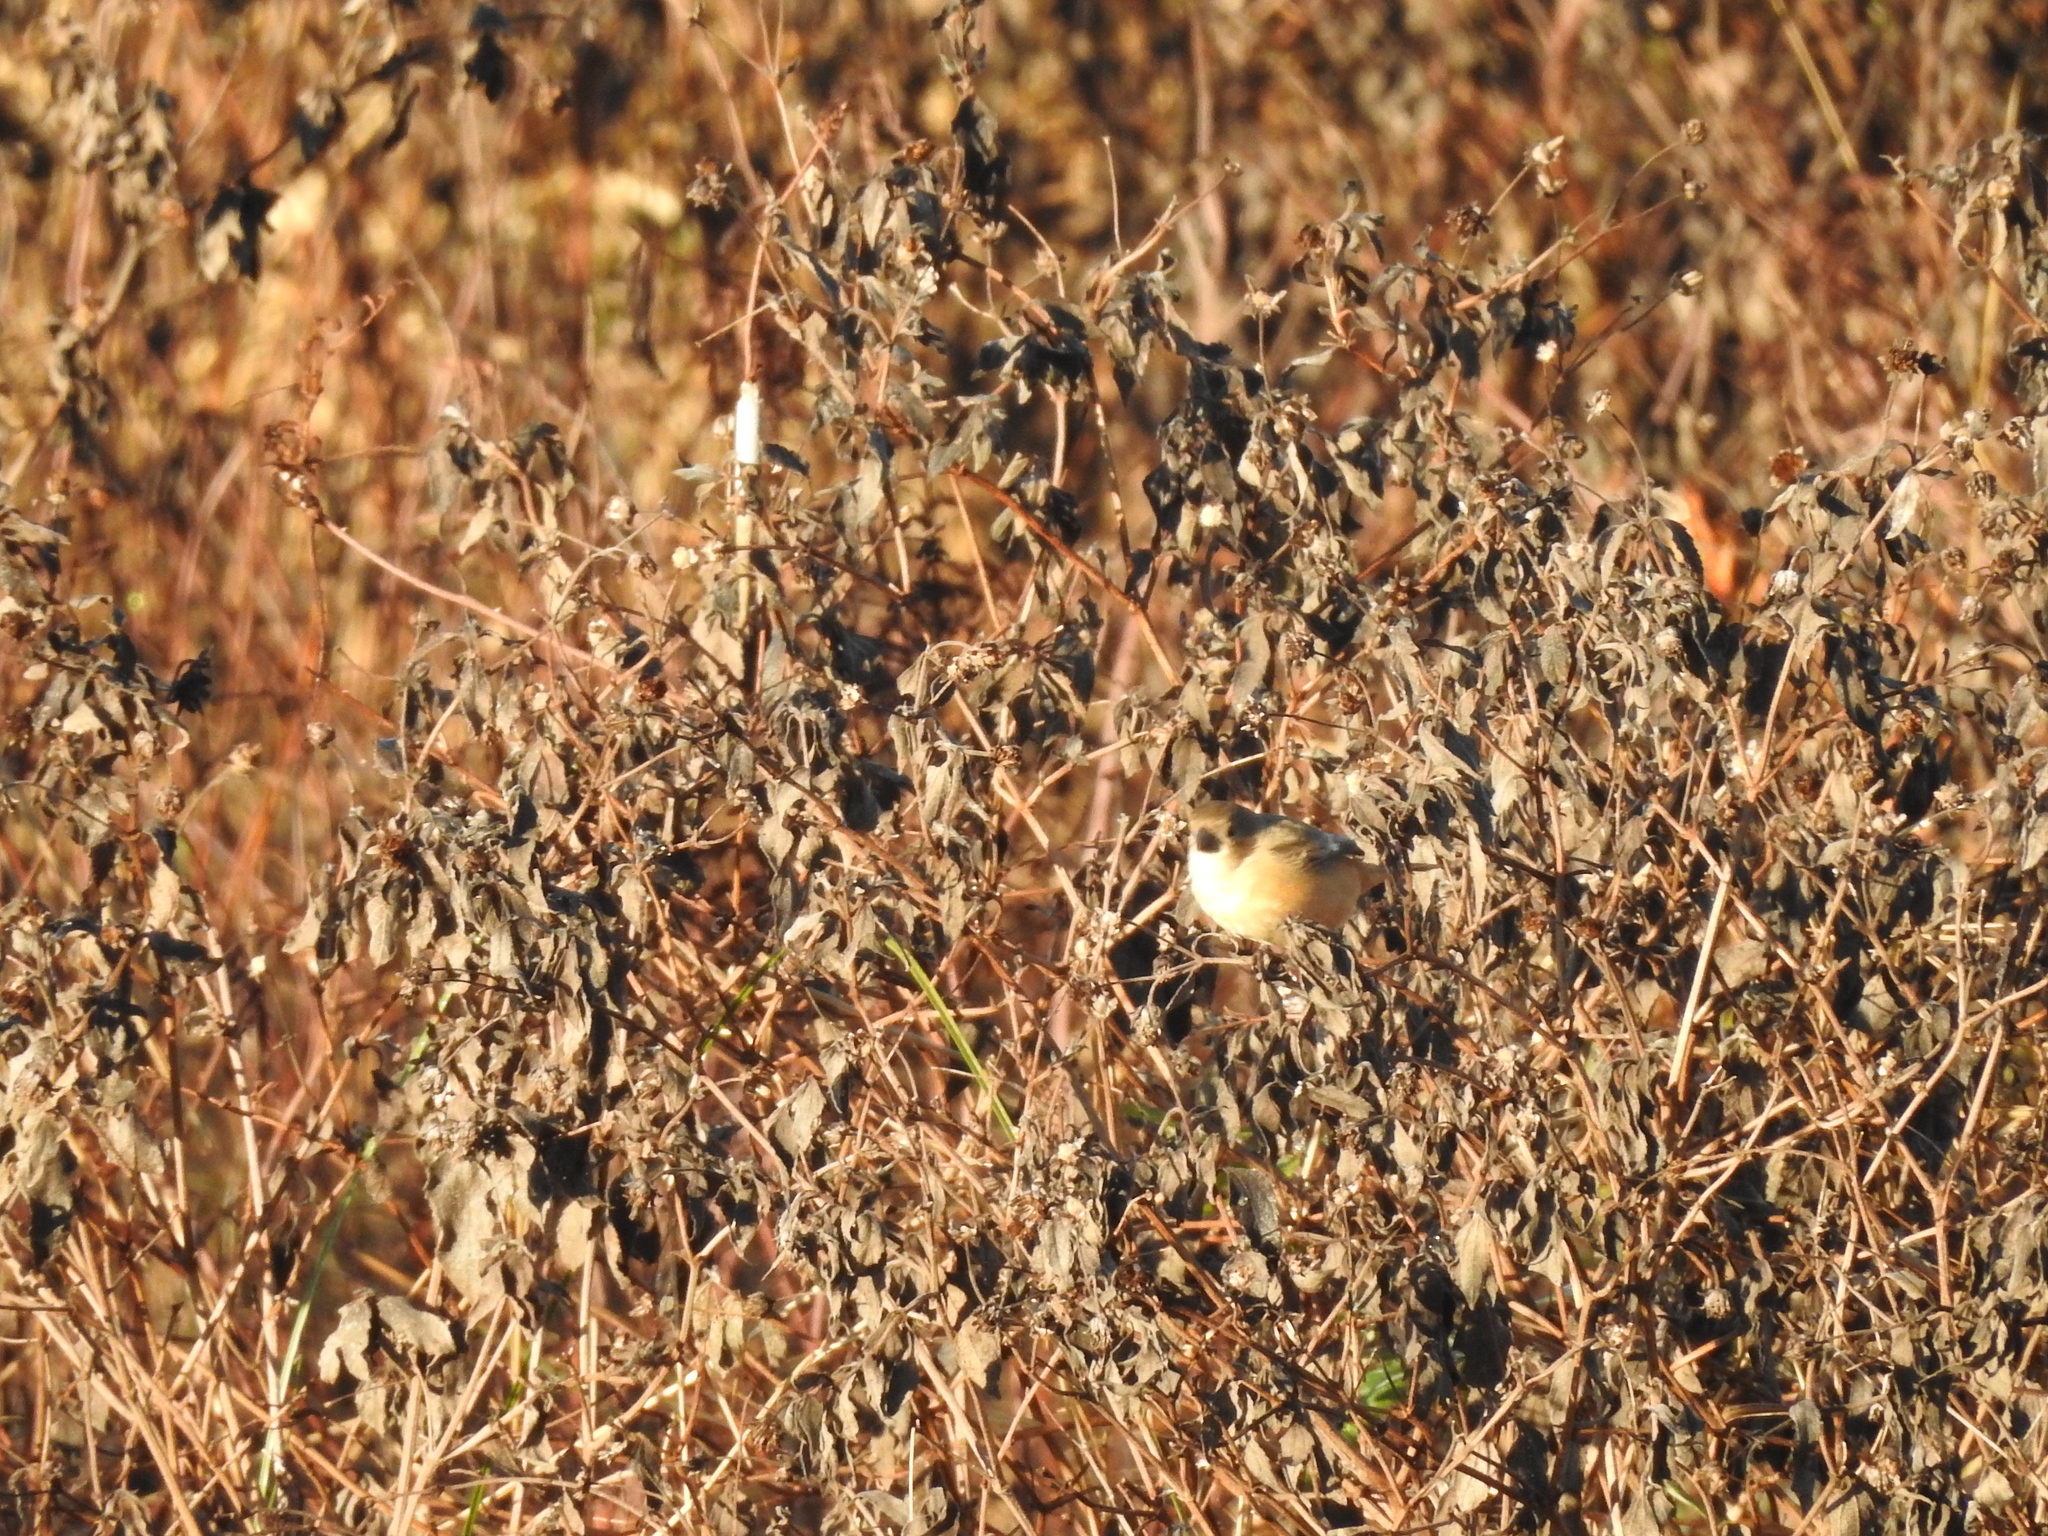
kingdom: Animalia
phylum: Chordata
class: Aves
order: Passeriformes
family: Thraupidae
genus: Sporophila
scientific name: Sporophila collaris
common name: Rusty-collared seedeater
